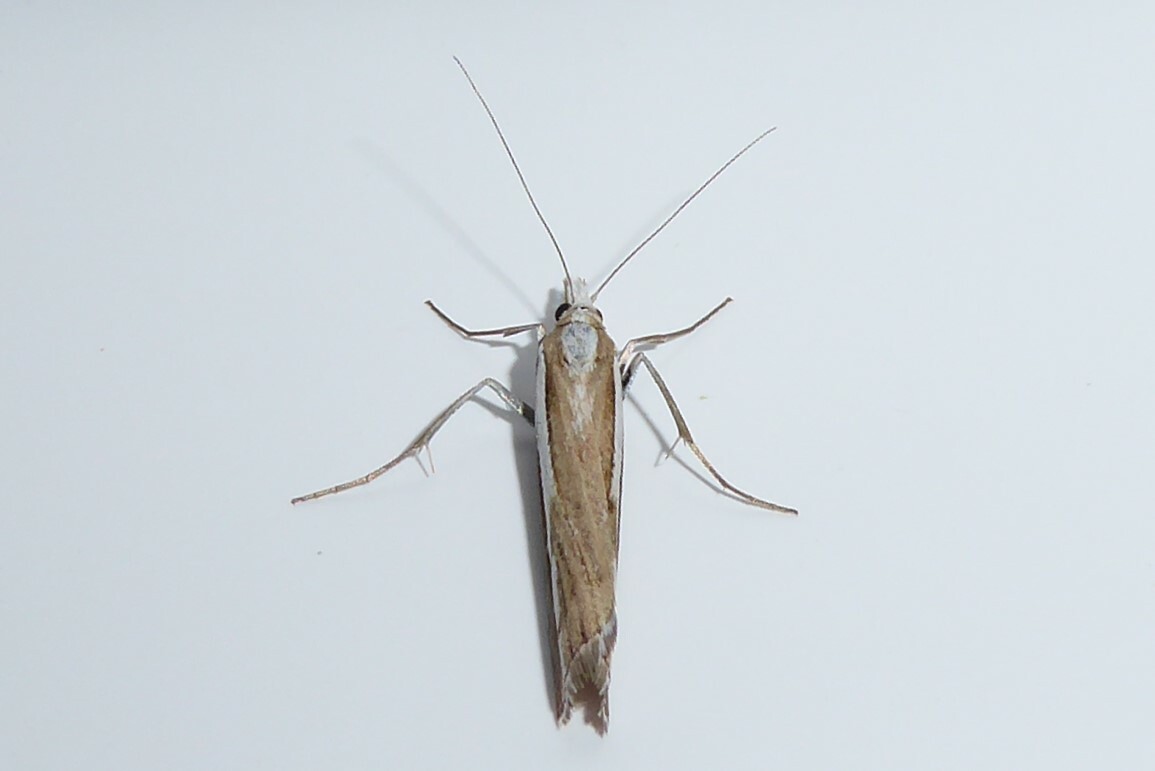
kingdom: Animalia
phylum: Arthropoda
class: Insecta
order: Lepidoptera
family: Crambidae
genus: Orocrambus
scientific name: Orocrambus vittellus
